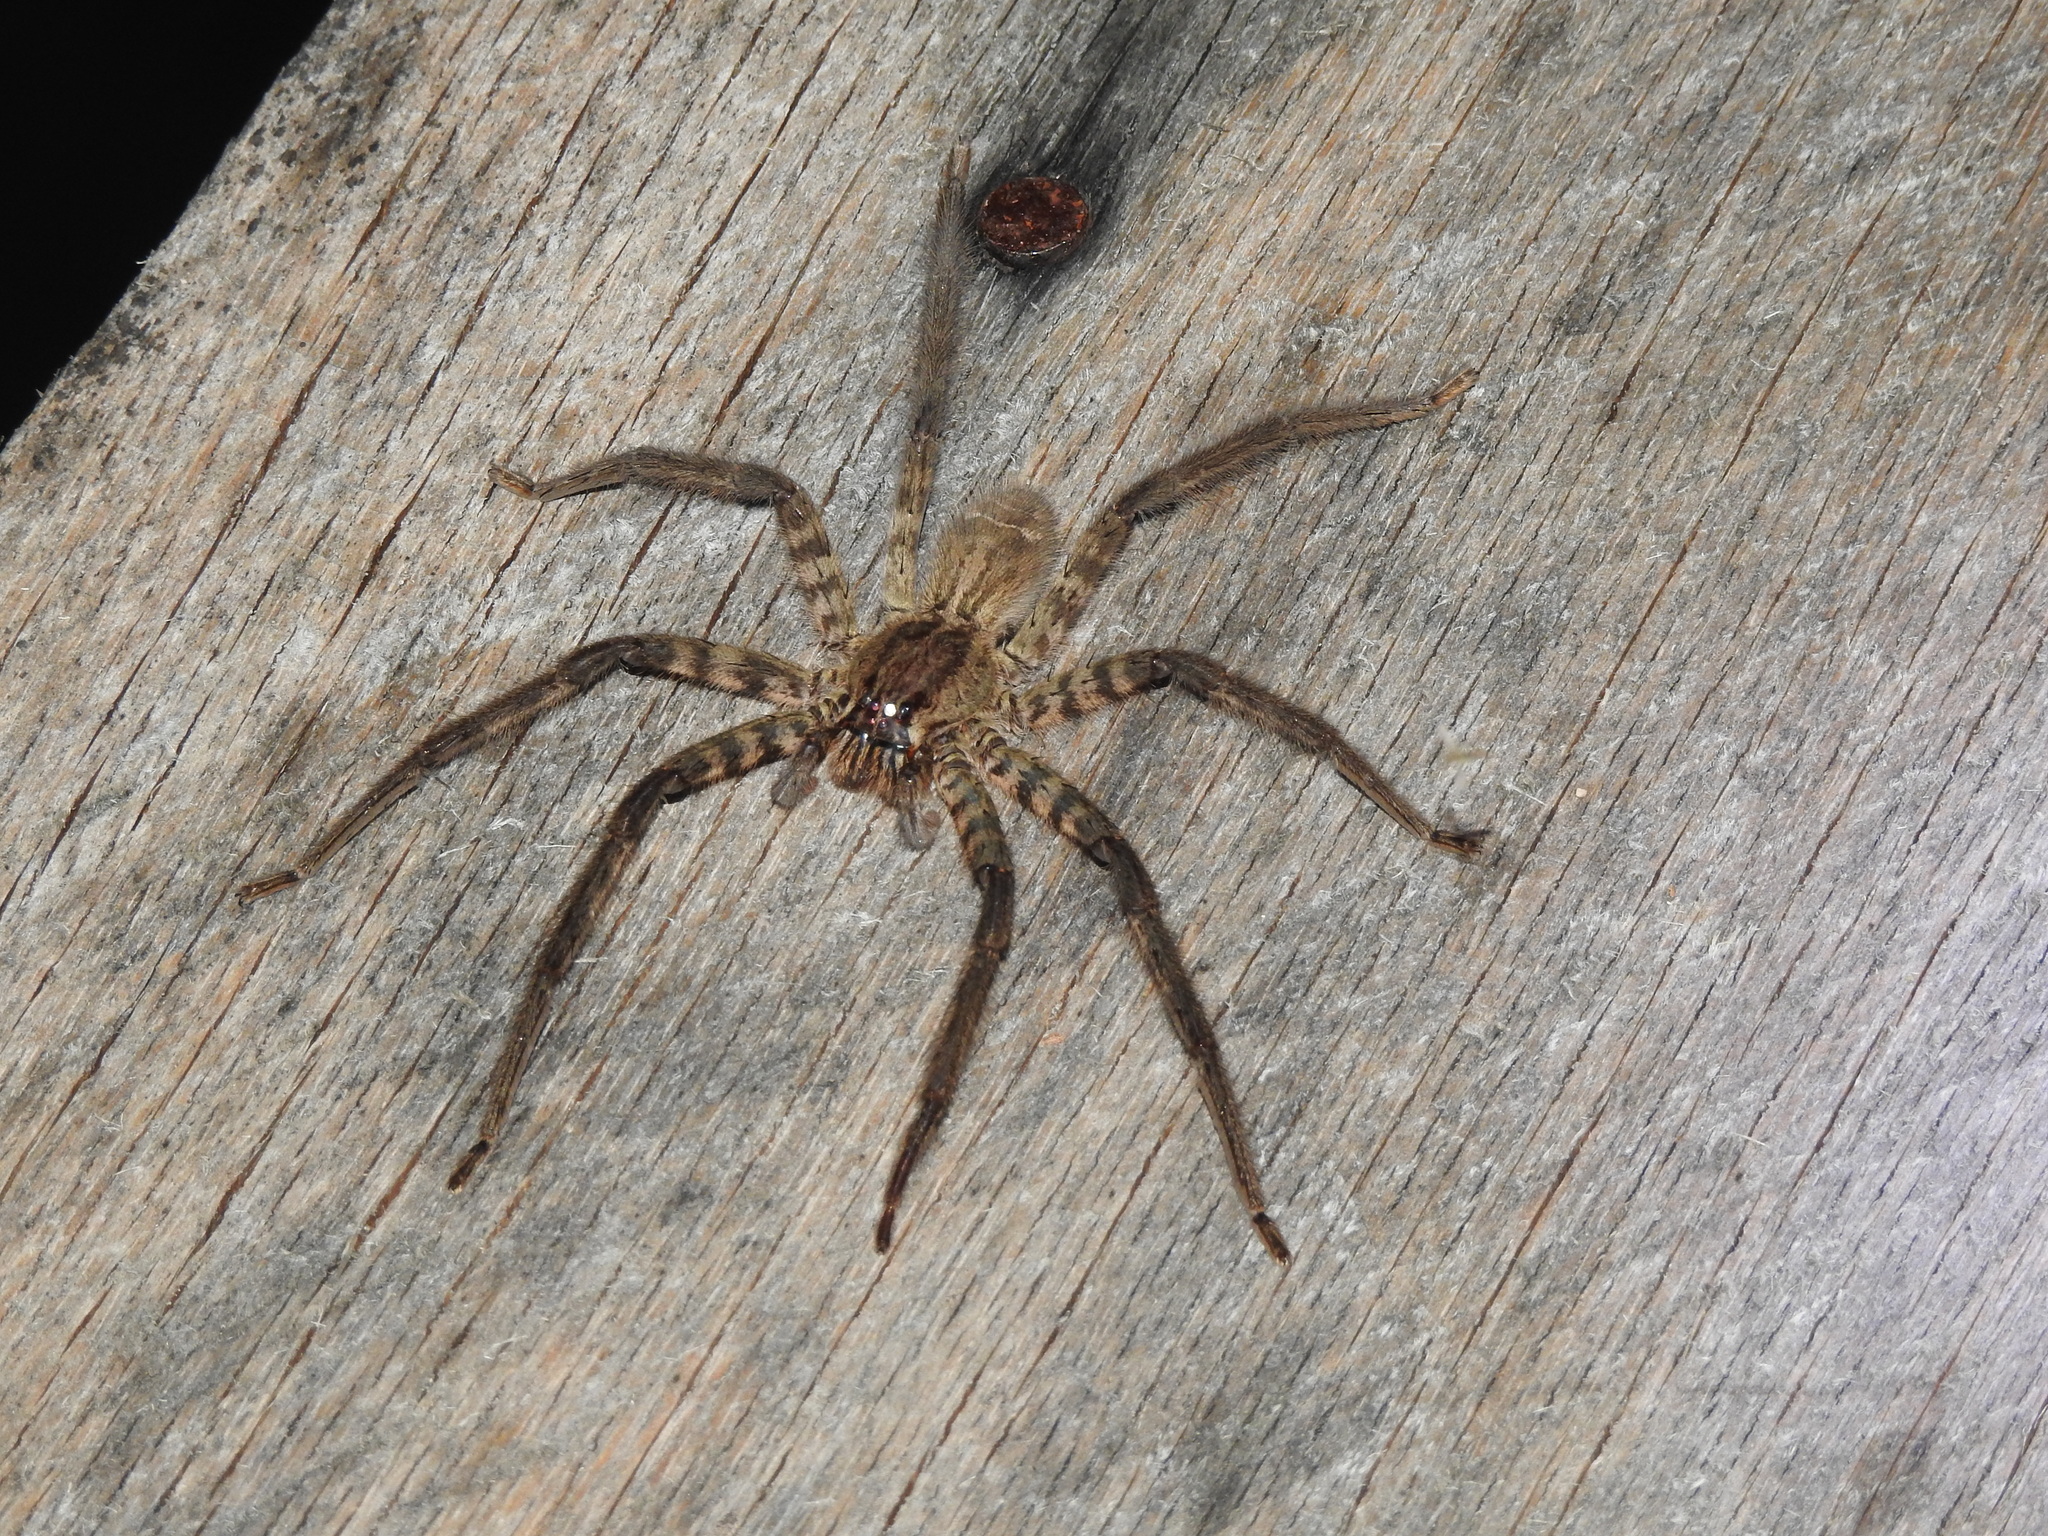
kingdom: Animalia
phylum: Arthropoda
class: Arachnida
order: Araneae
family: Trechaleidae
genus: Cupiennius
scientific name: Cupiennius salei
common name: Wandering spiders
